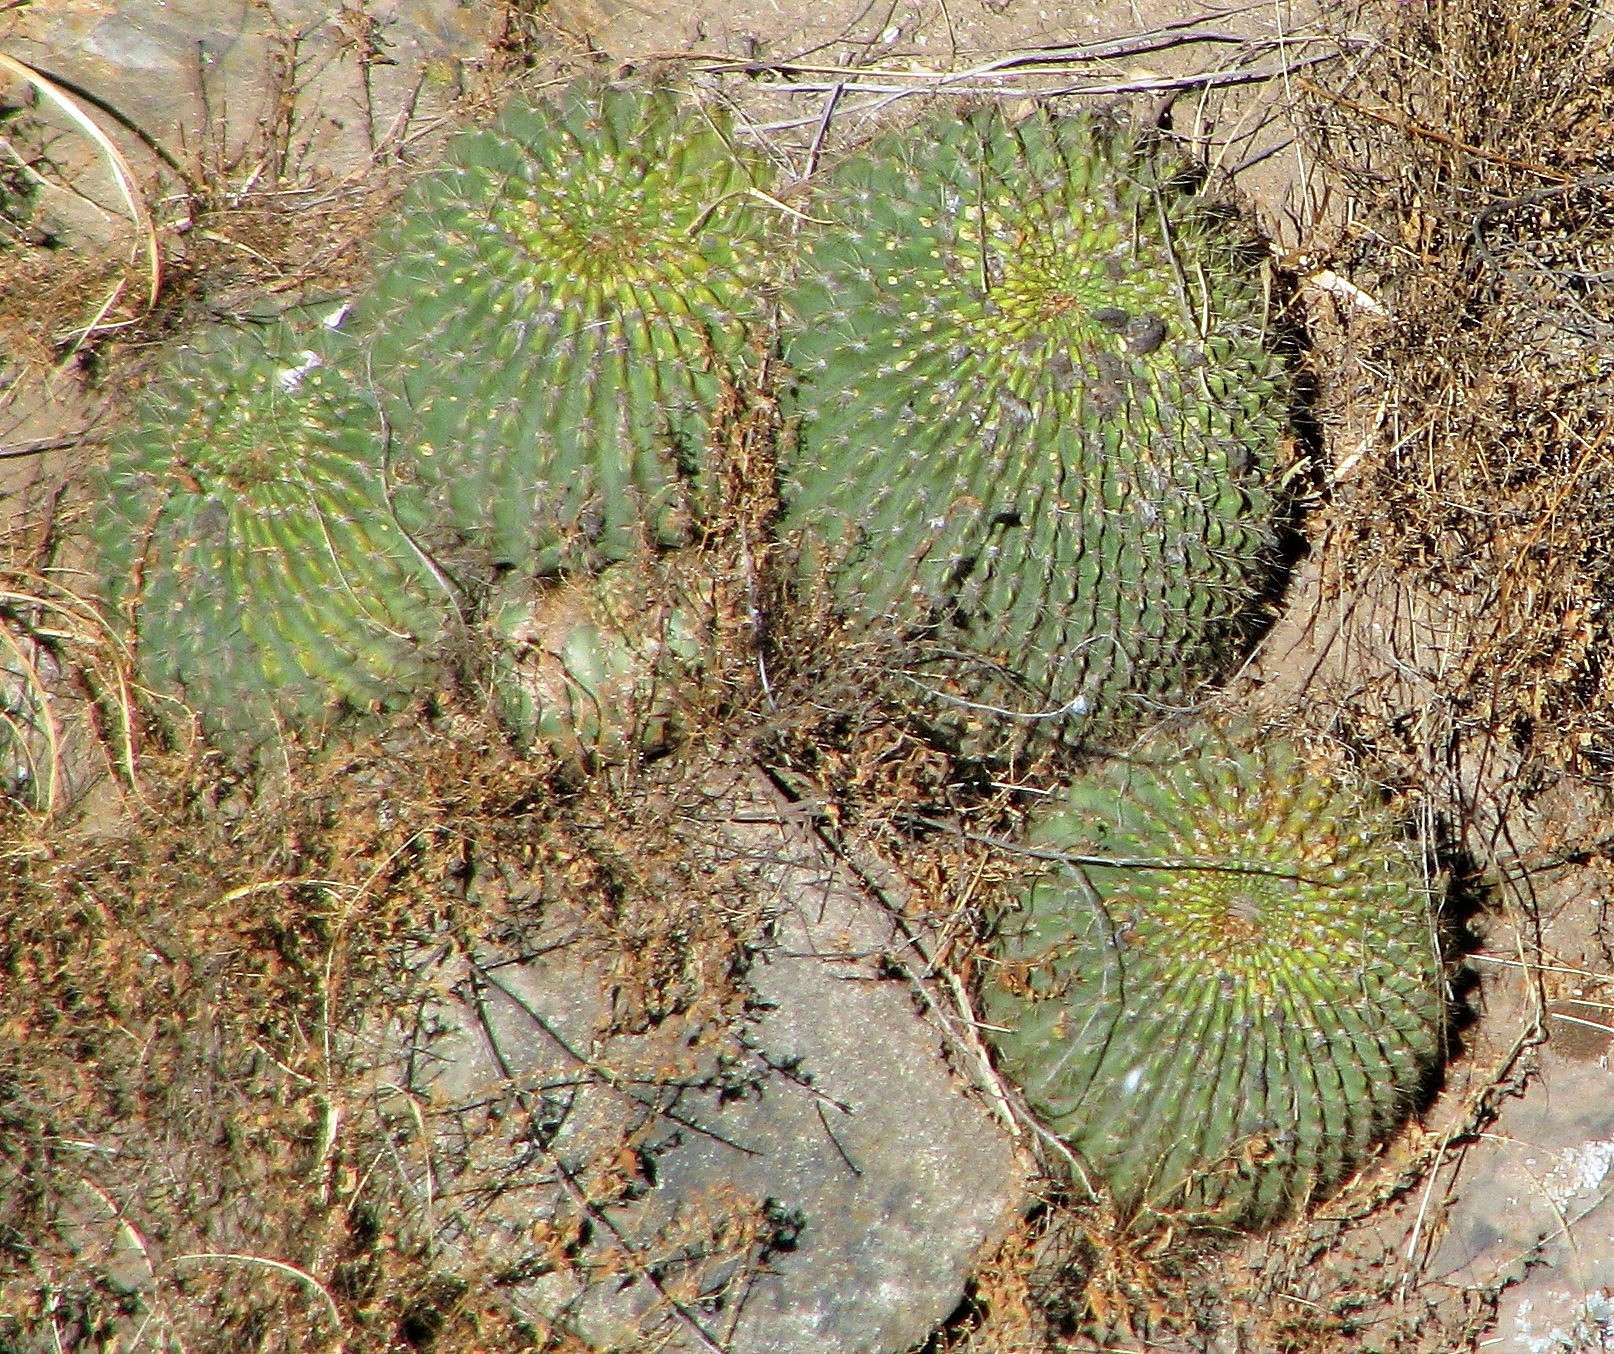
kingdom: Plantae
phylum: Tracheophyta
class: Magnoliopsida
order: Caryophyllales
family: Cactaceae
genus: Soehrensia
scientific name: Soehrensia bruchii
